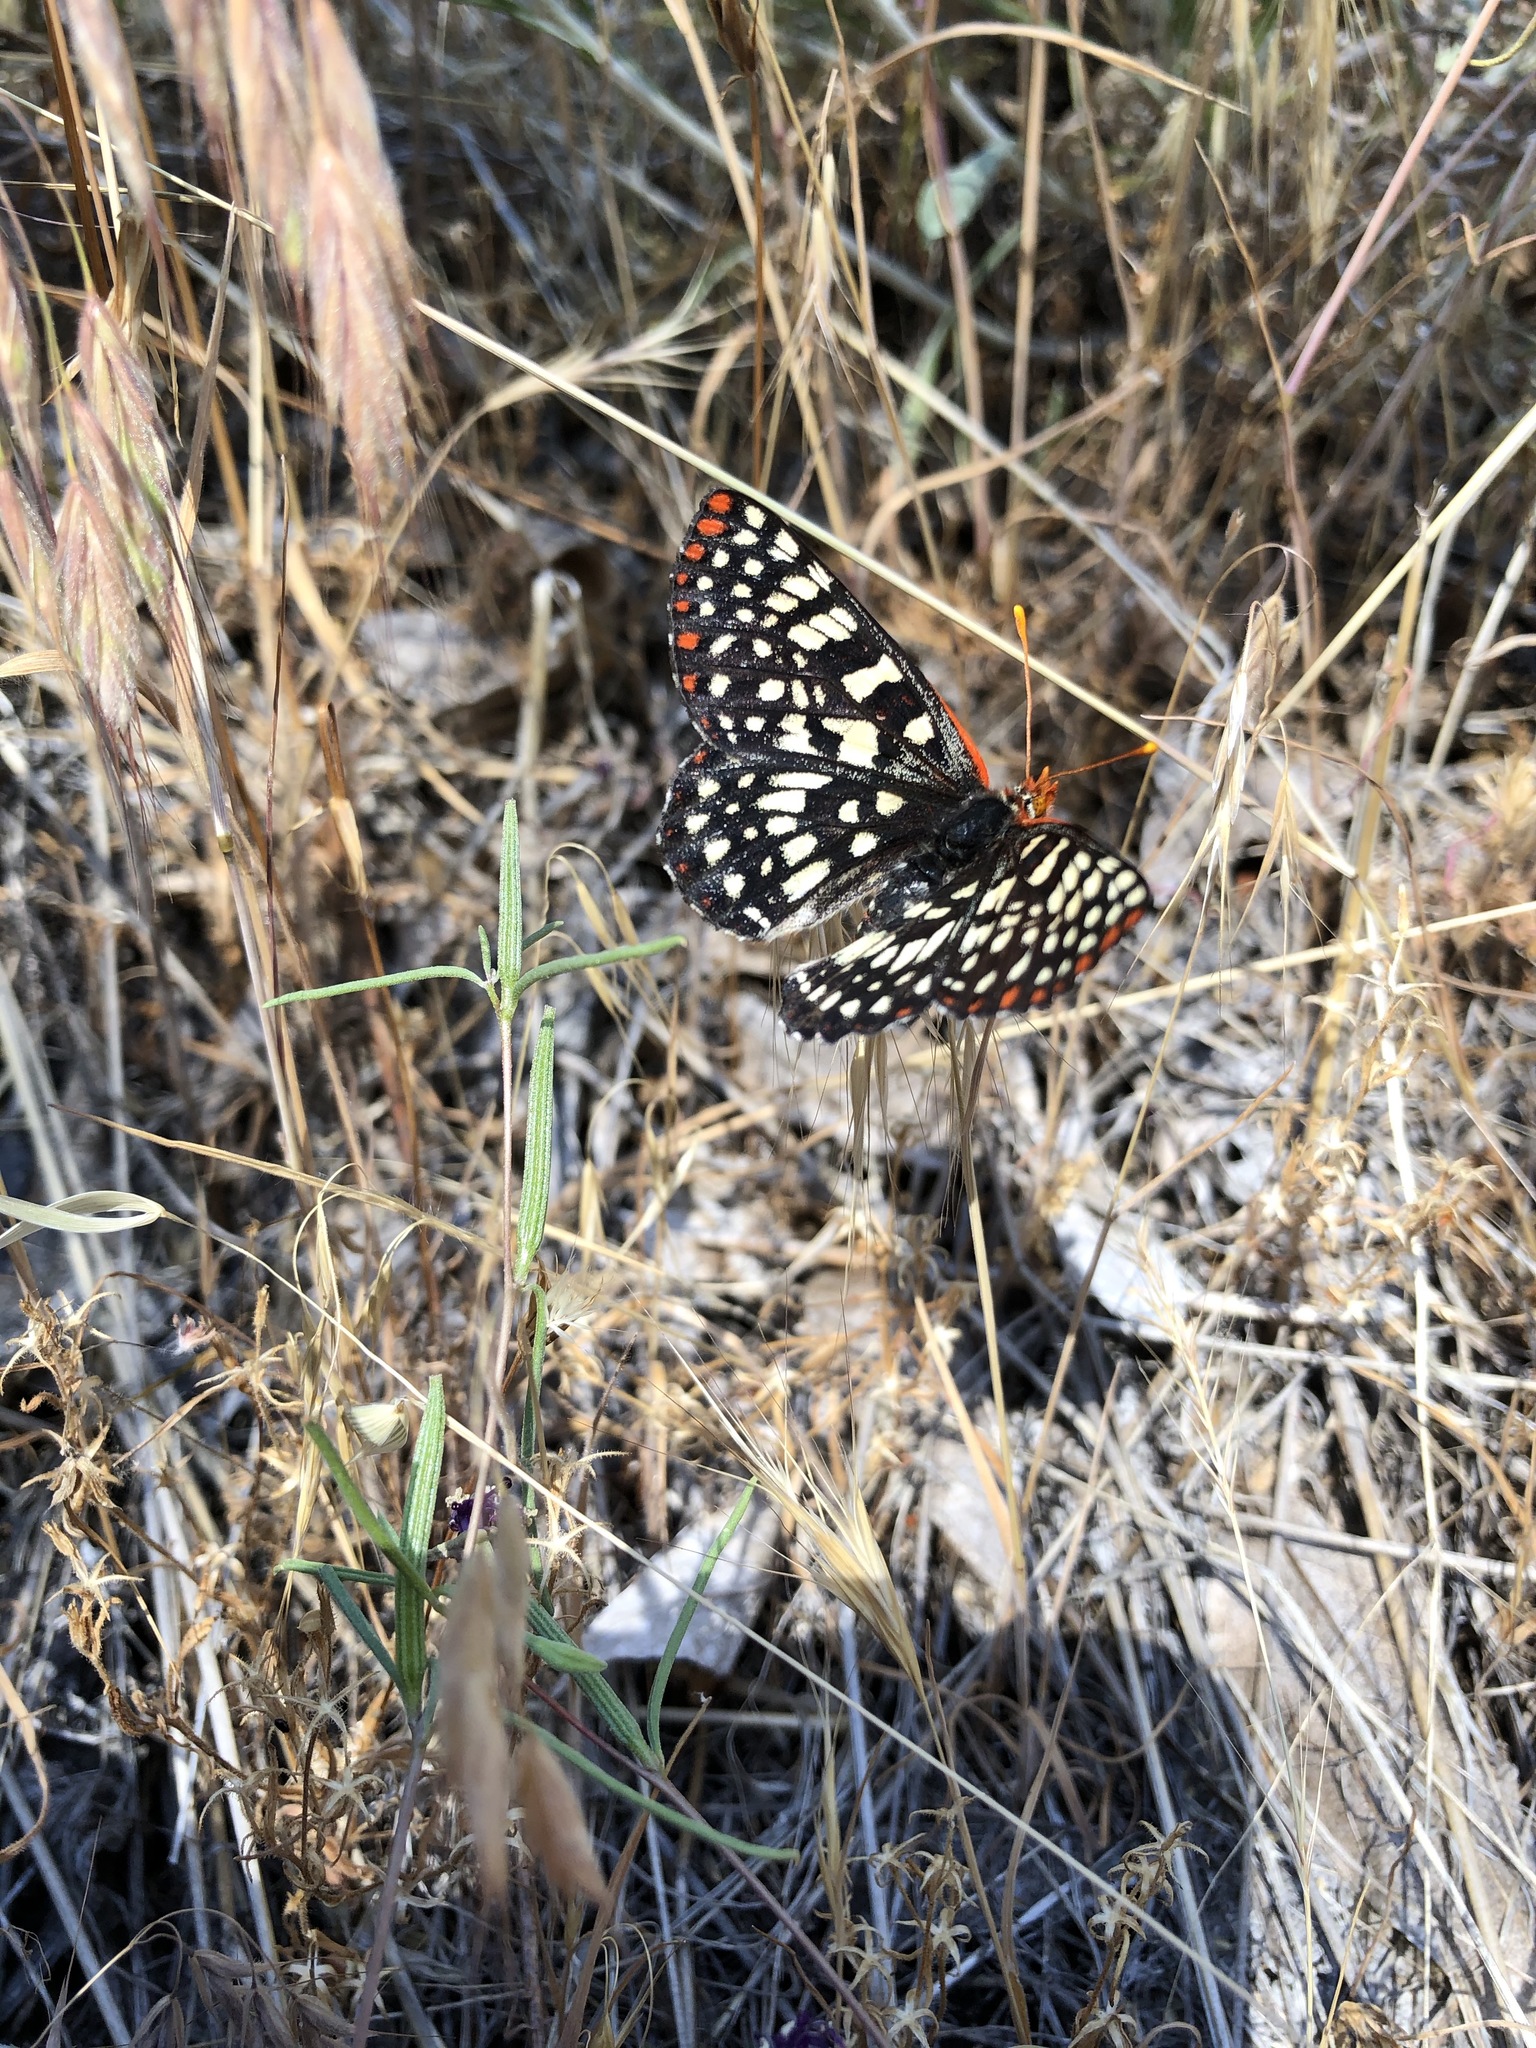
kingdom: Animalia
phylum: Arthropoda
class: Insecta
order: Lepidoptera
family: Nymphalidae
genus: Occidryas
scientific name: Occidryas chalcedona
